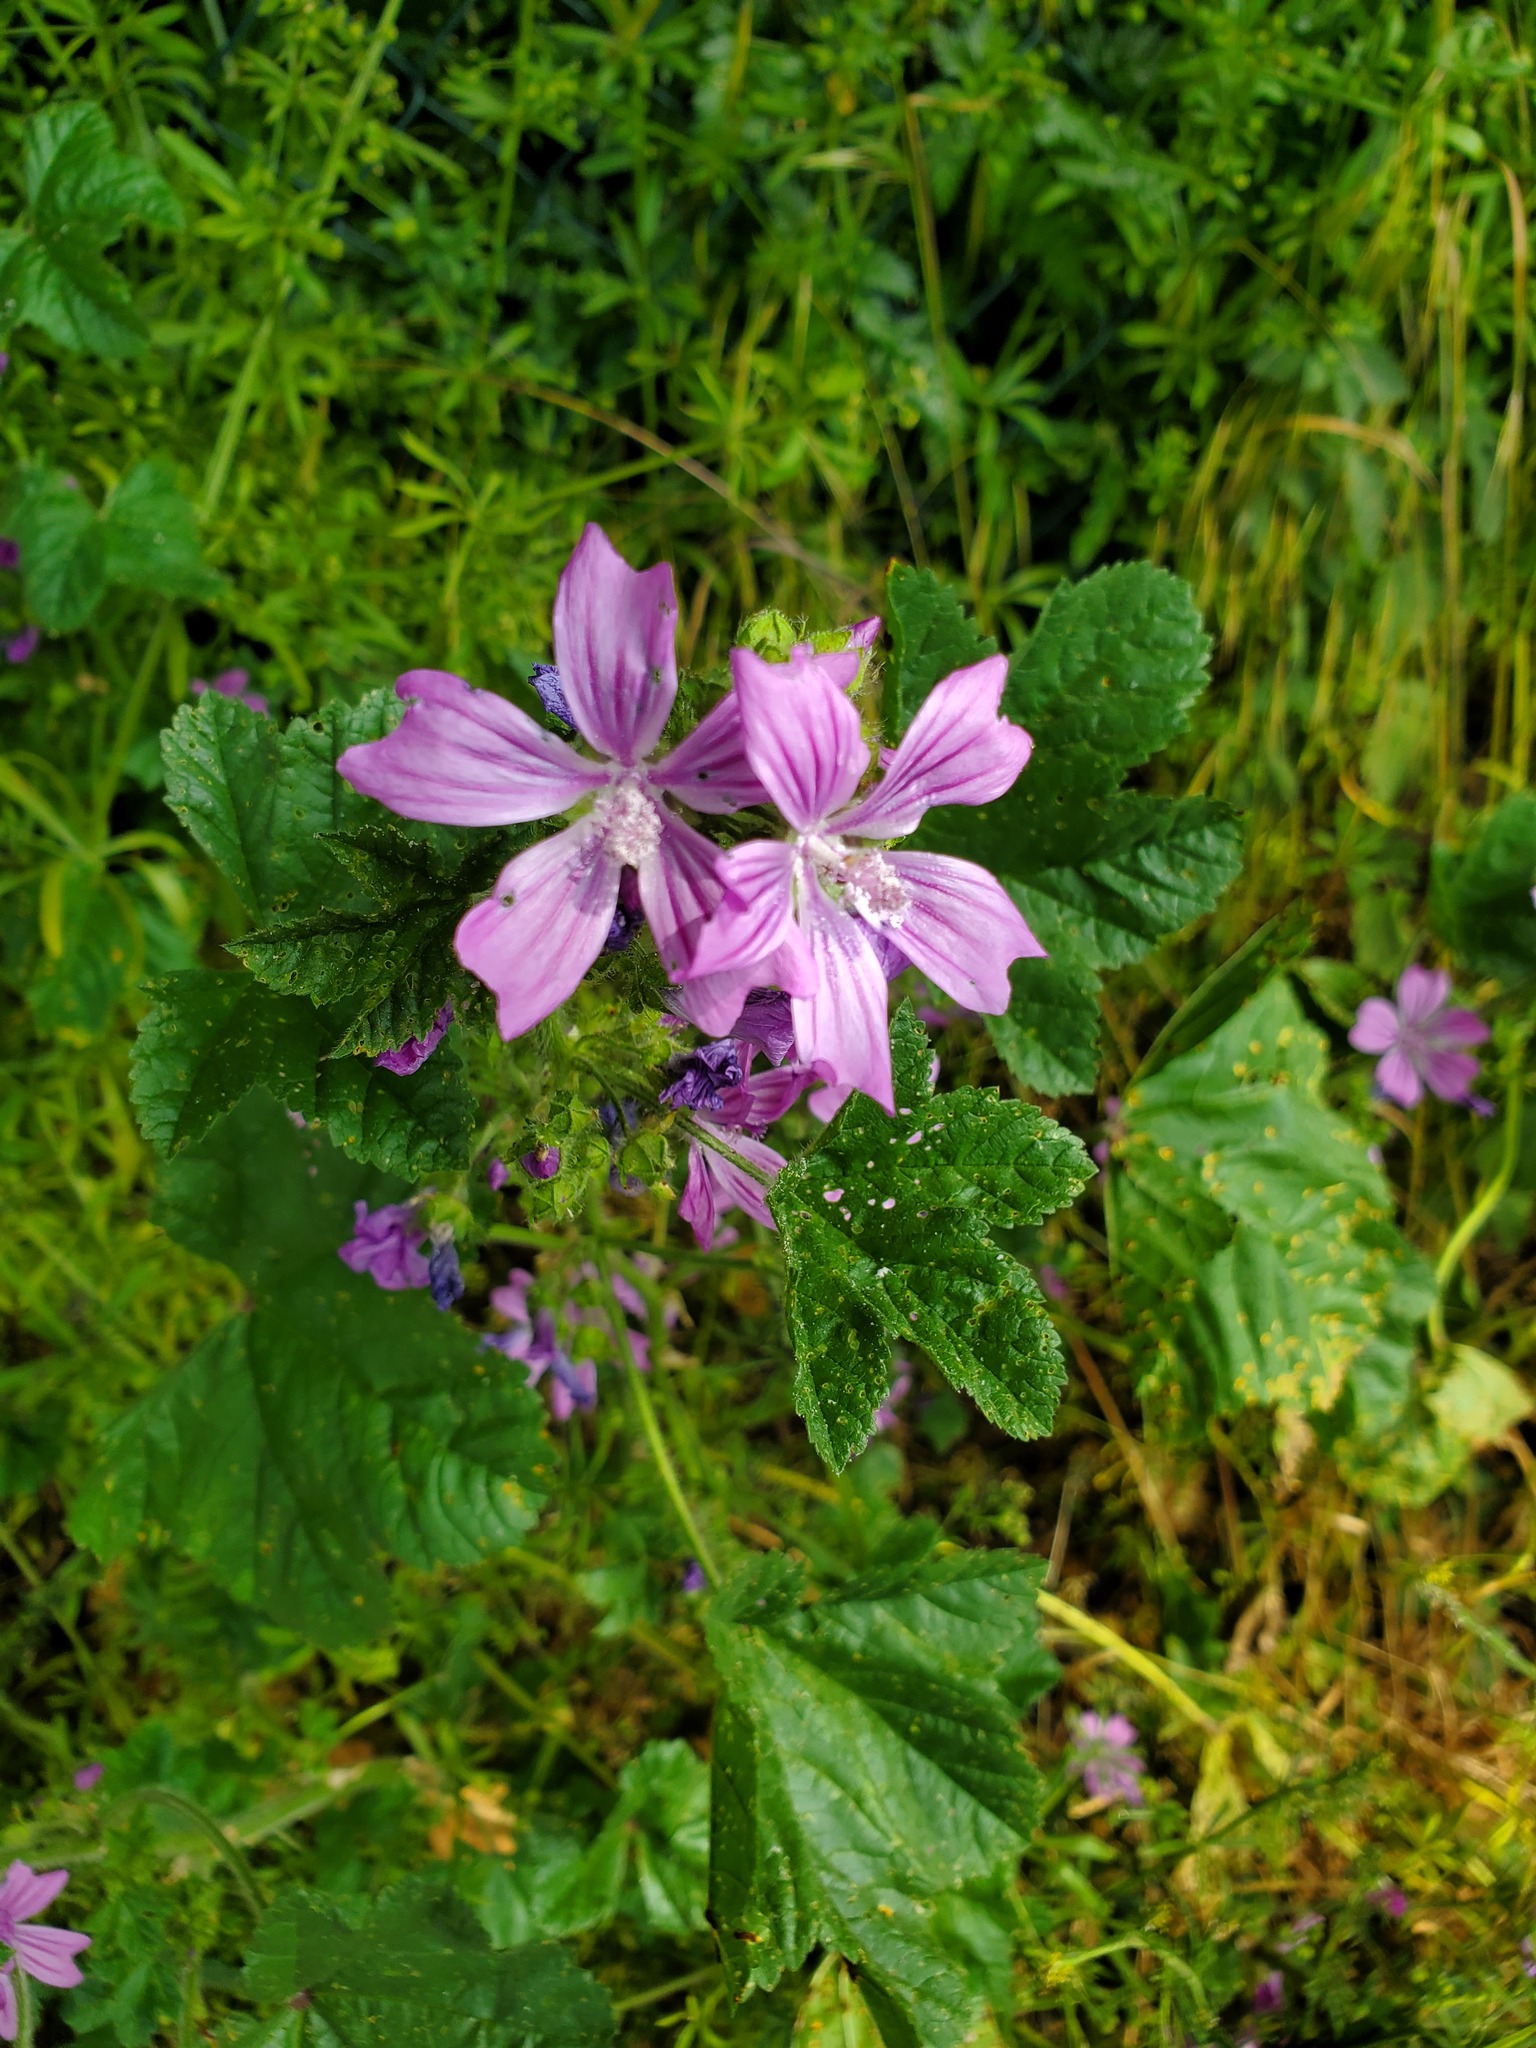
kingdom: Plantae
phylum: Tracheophyta
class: Magnoliopsida
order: Malvales
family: Malvaceae
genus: Malva
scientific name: Malva sylvestris
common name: Common mallow
